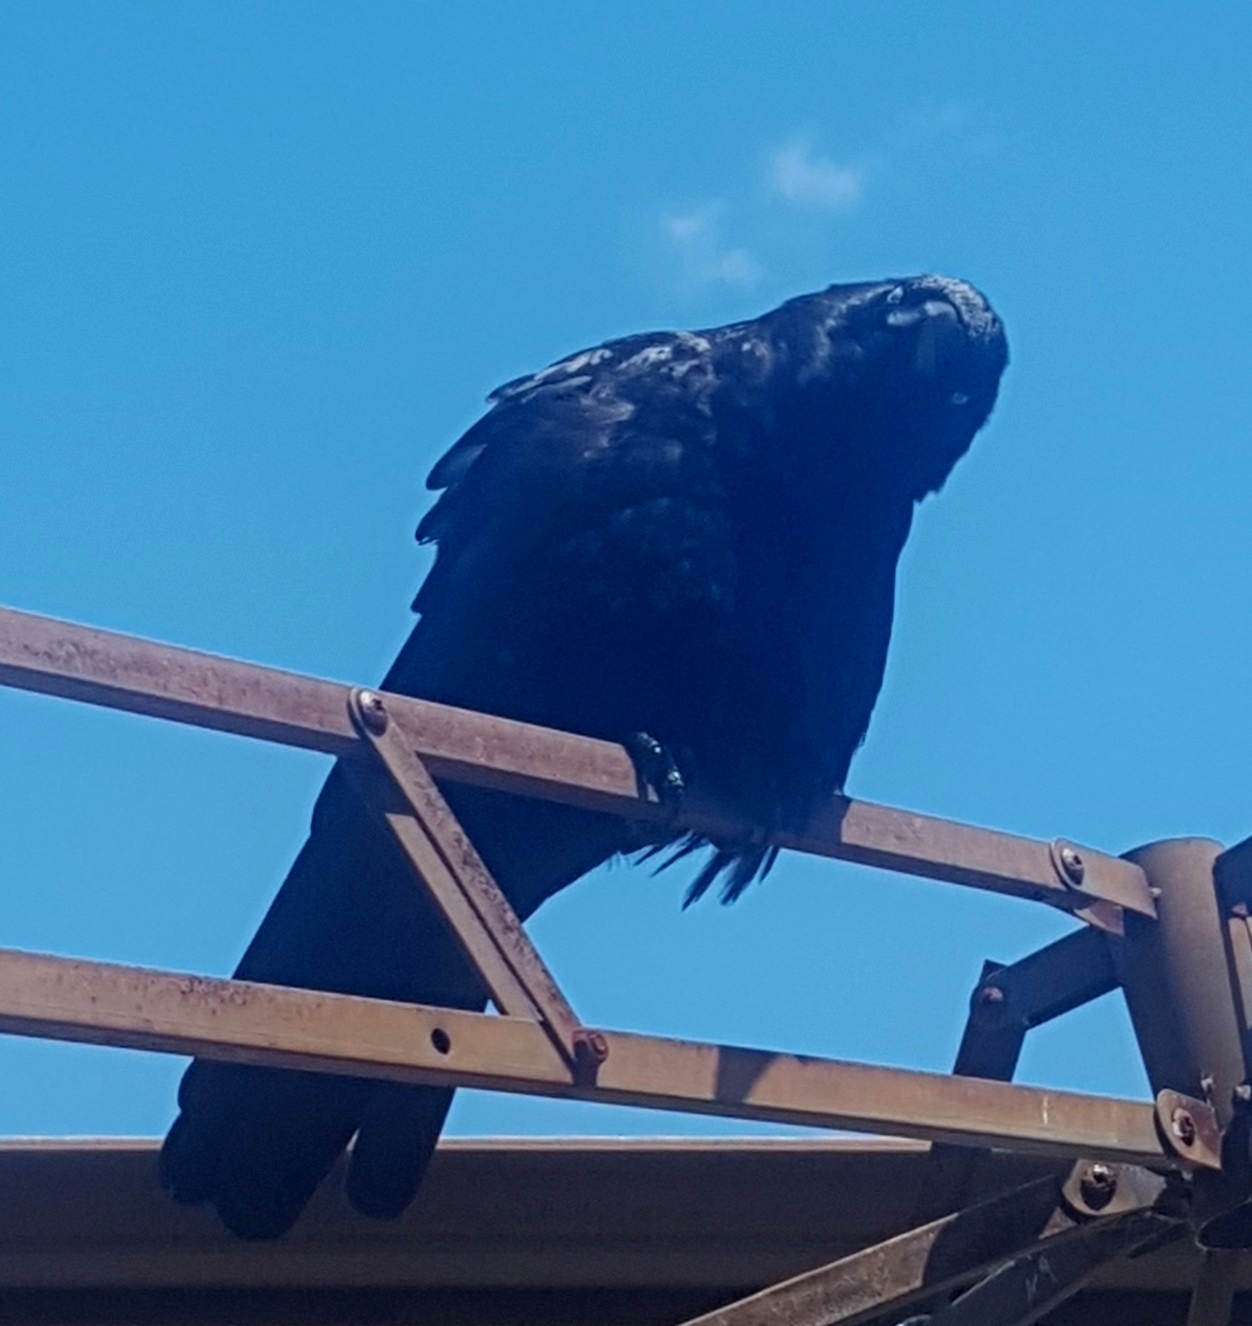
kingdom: Animalia
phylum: Chordata
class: Aves
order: Passeriformes
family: Corvidae
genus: Corvus
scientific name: Corvus brachyrhynchos
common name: American crow
